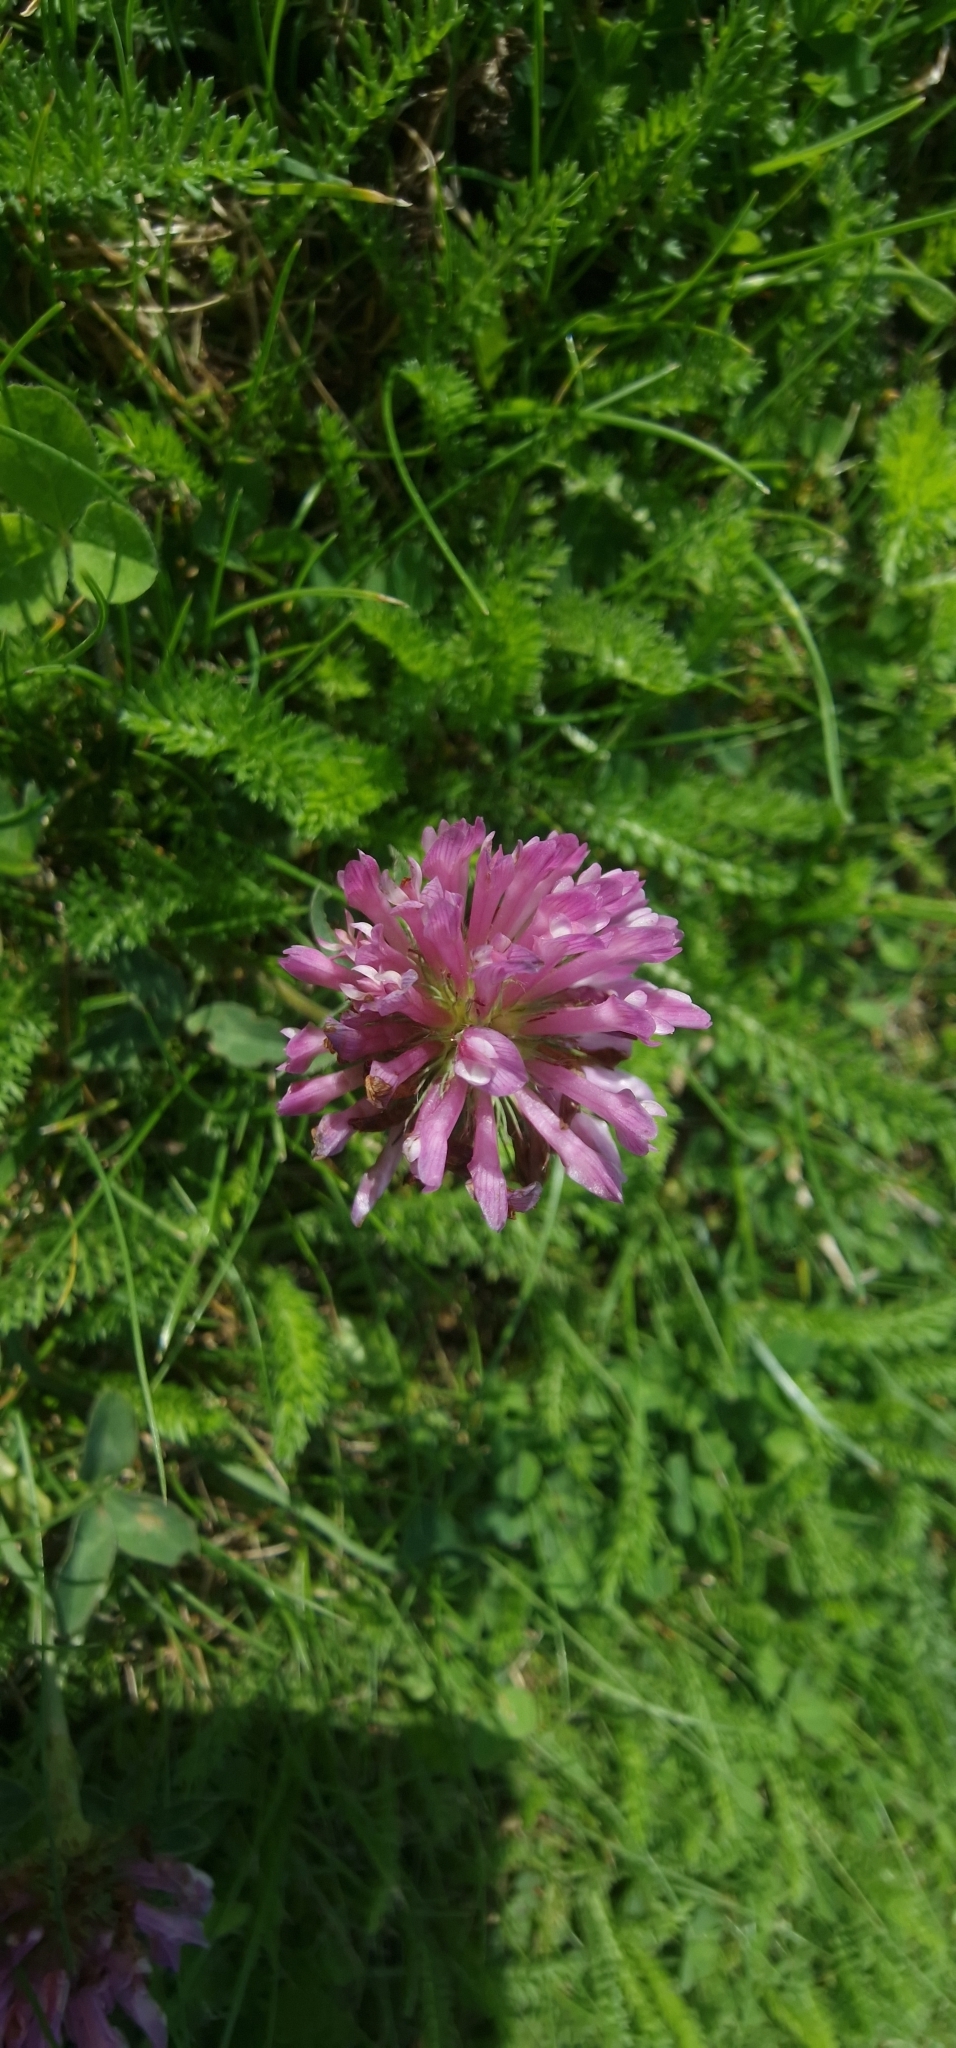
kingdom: Plantae
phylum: Tracheophyta
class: Magnoliopsida
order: Fabales
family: Fabaceae
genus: Trifolium
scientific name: Trifolium pratense
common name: Red clover
